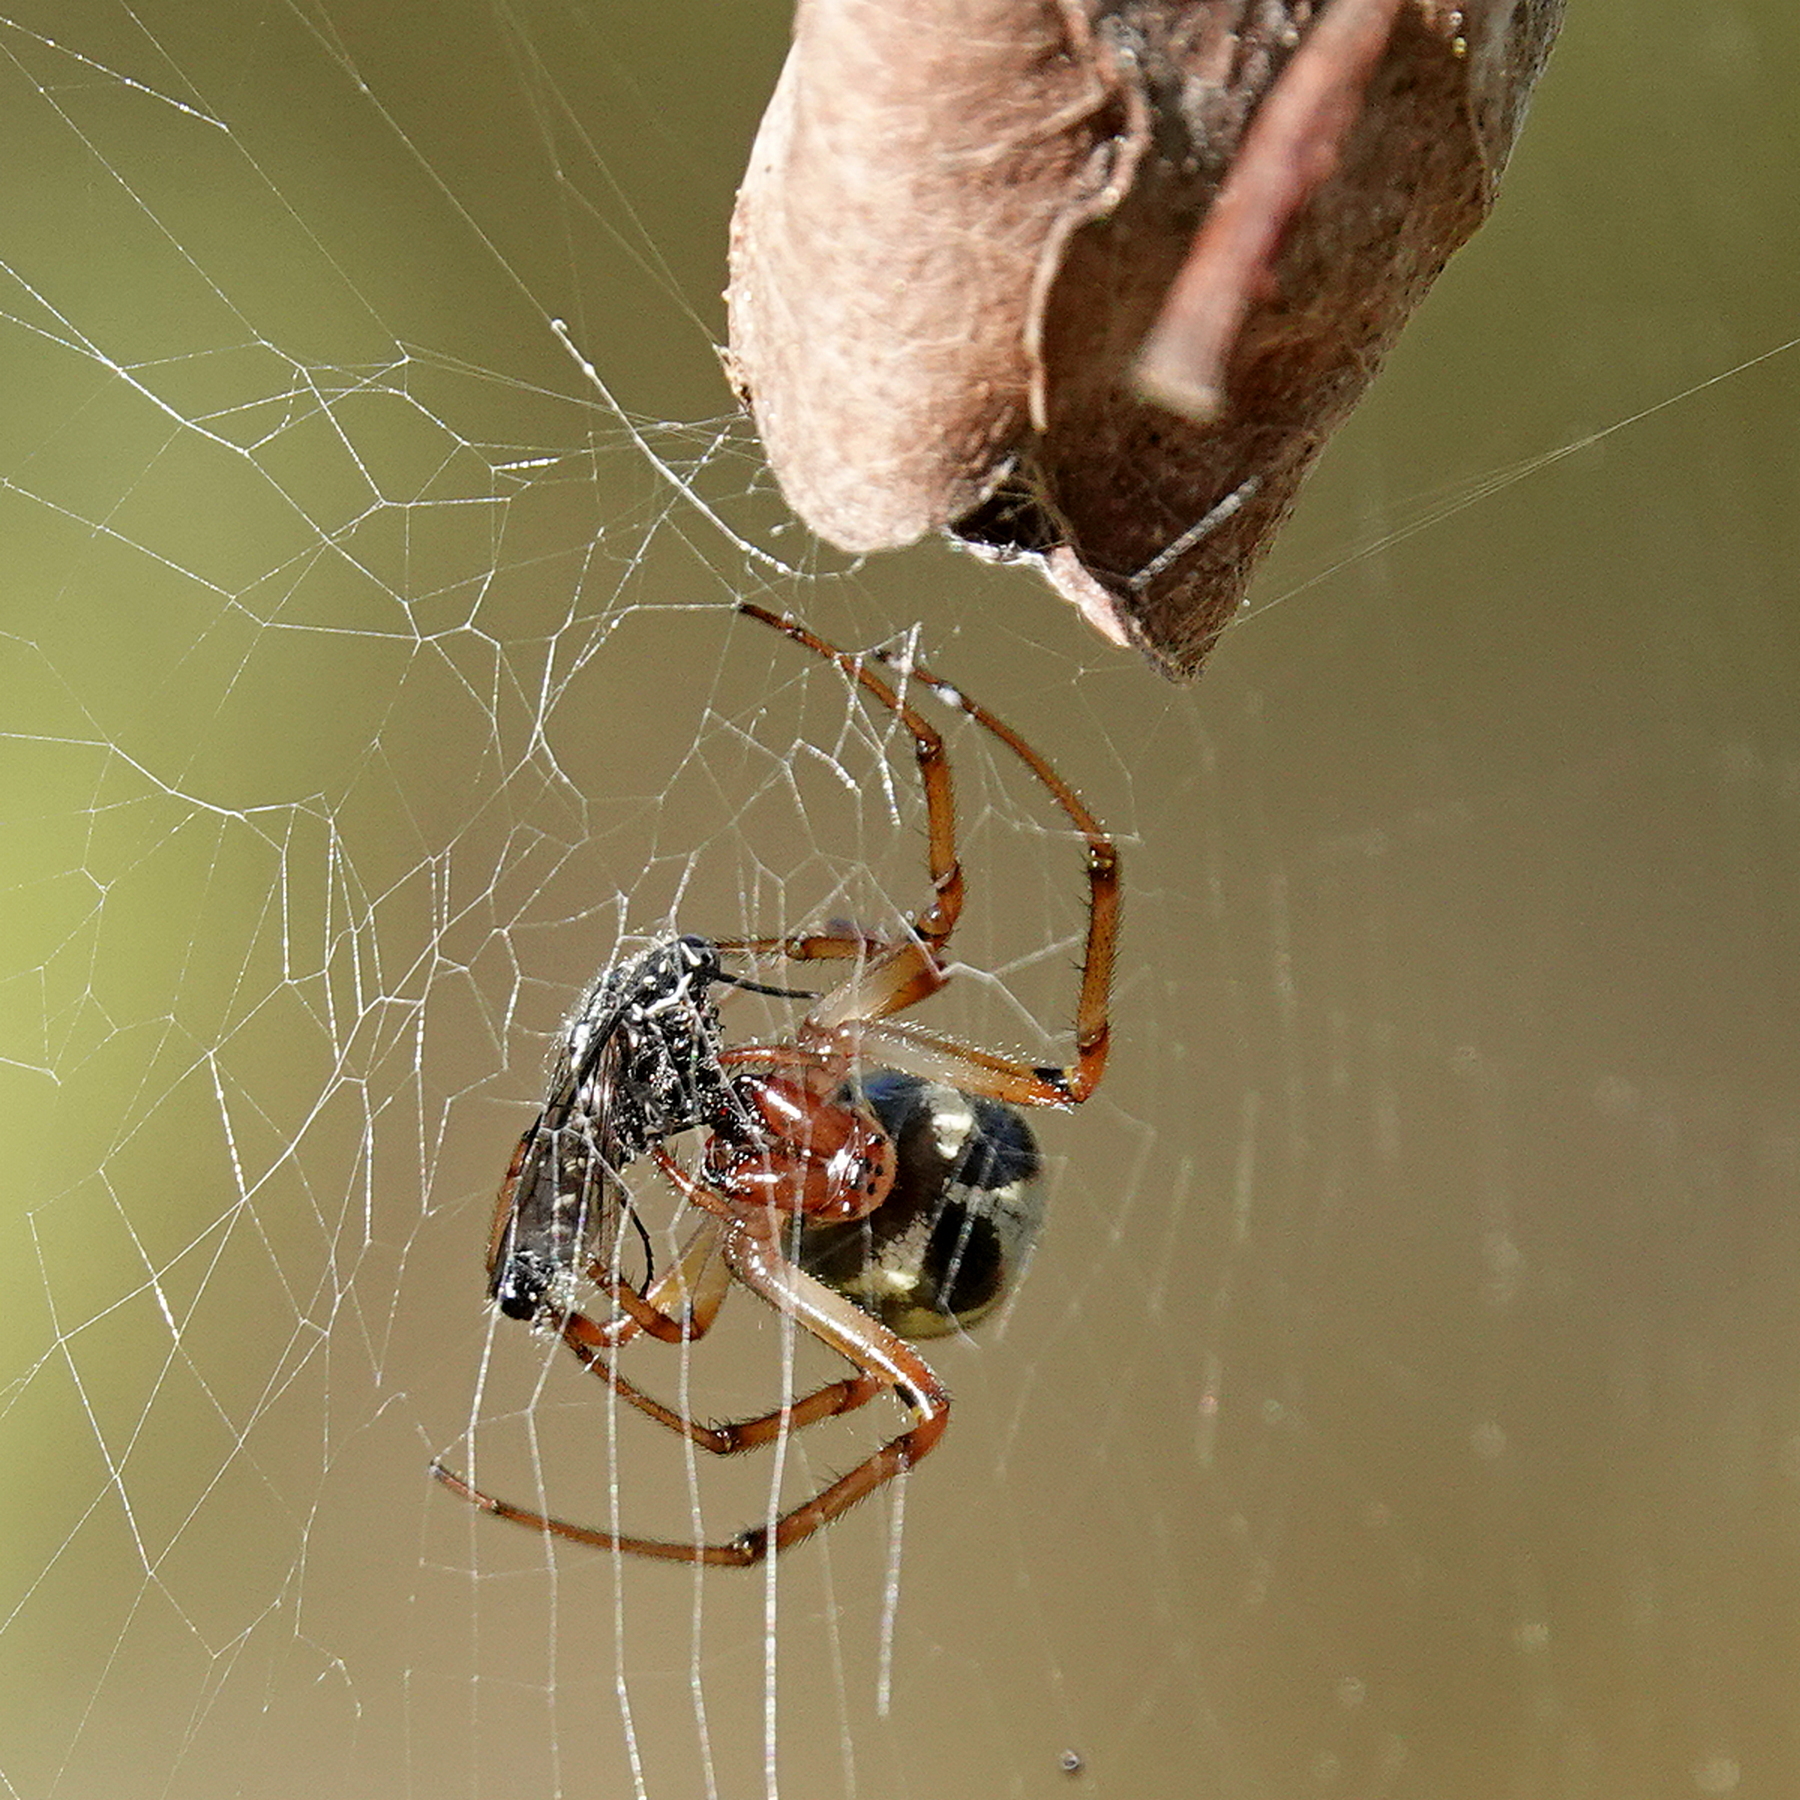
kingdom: Animalia
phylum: Arthropoda
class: Arachnida
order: Araneae
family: Araneidae
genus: Phonognatha
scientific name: Phonognatha graeffei
